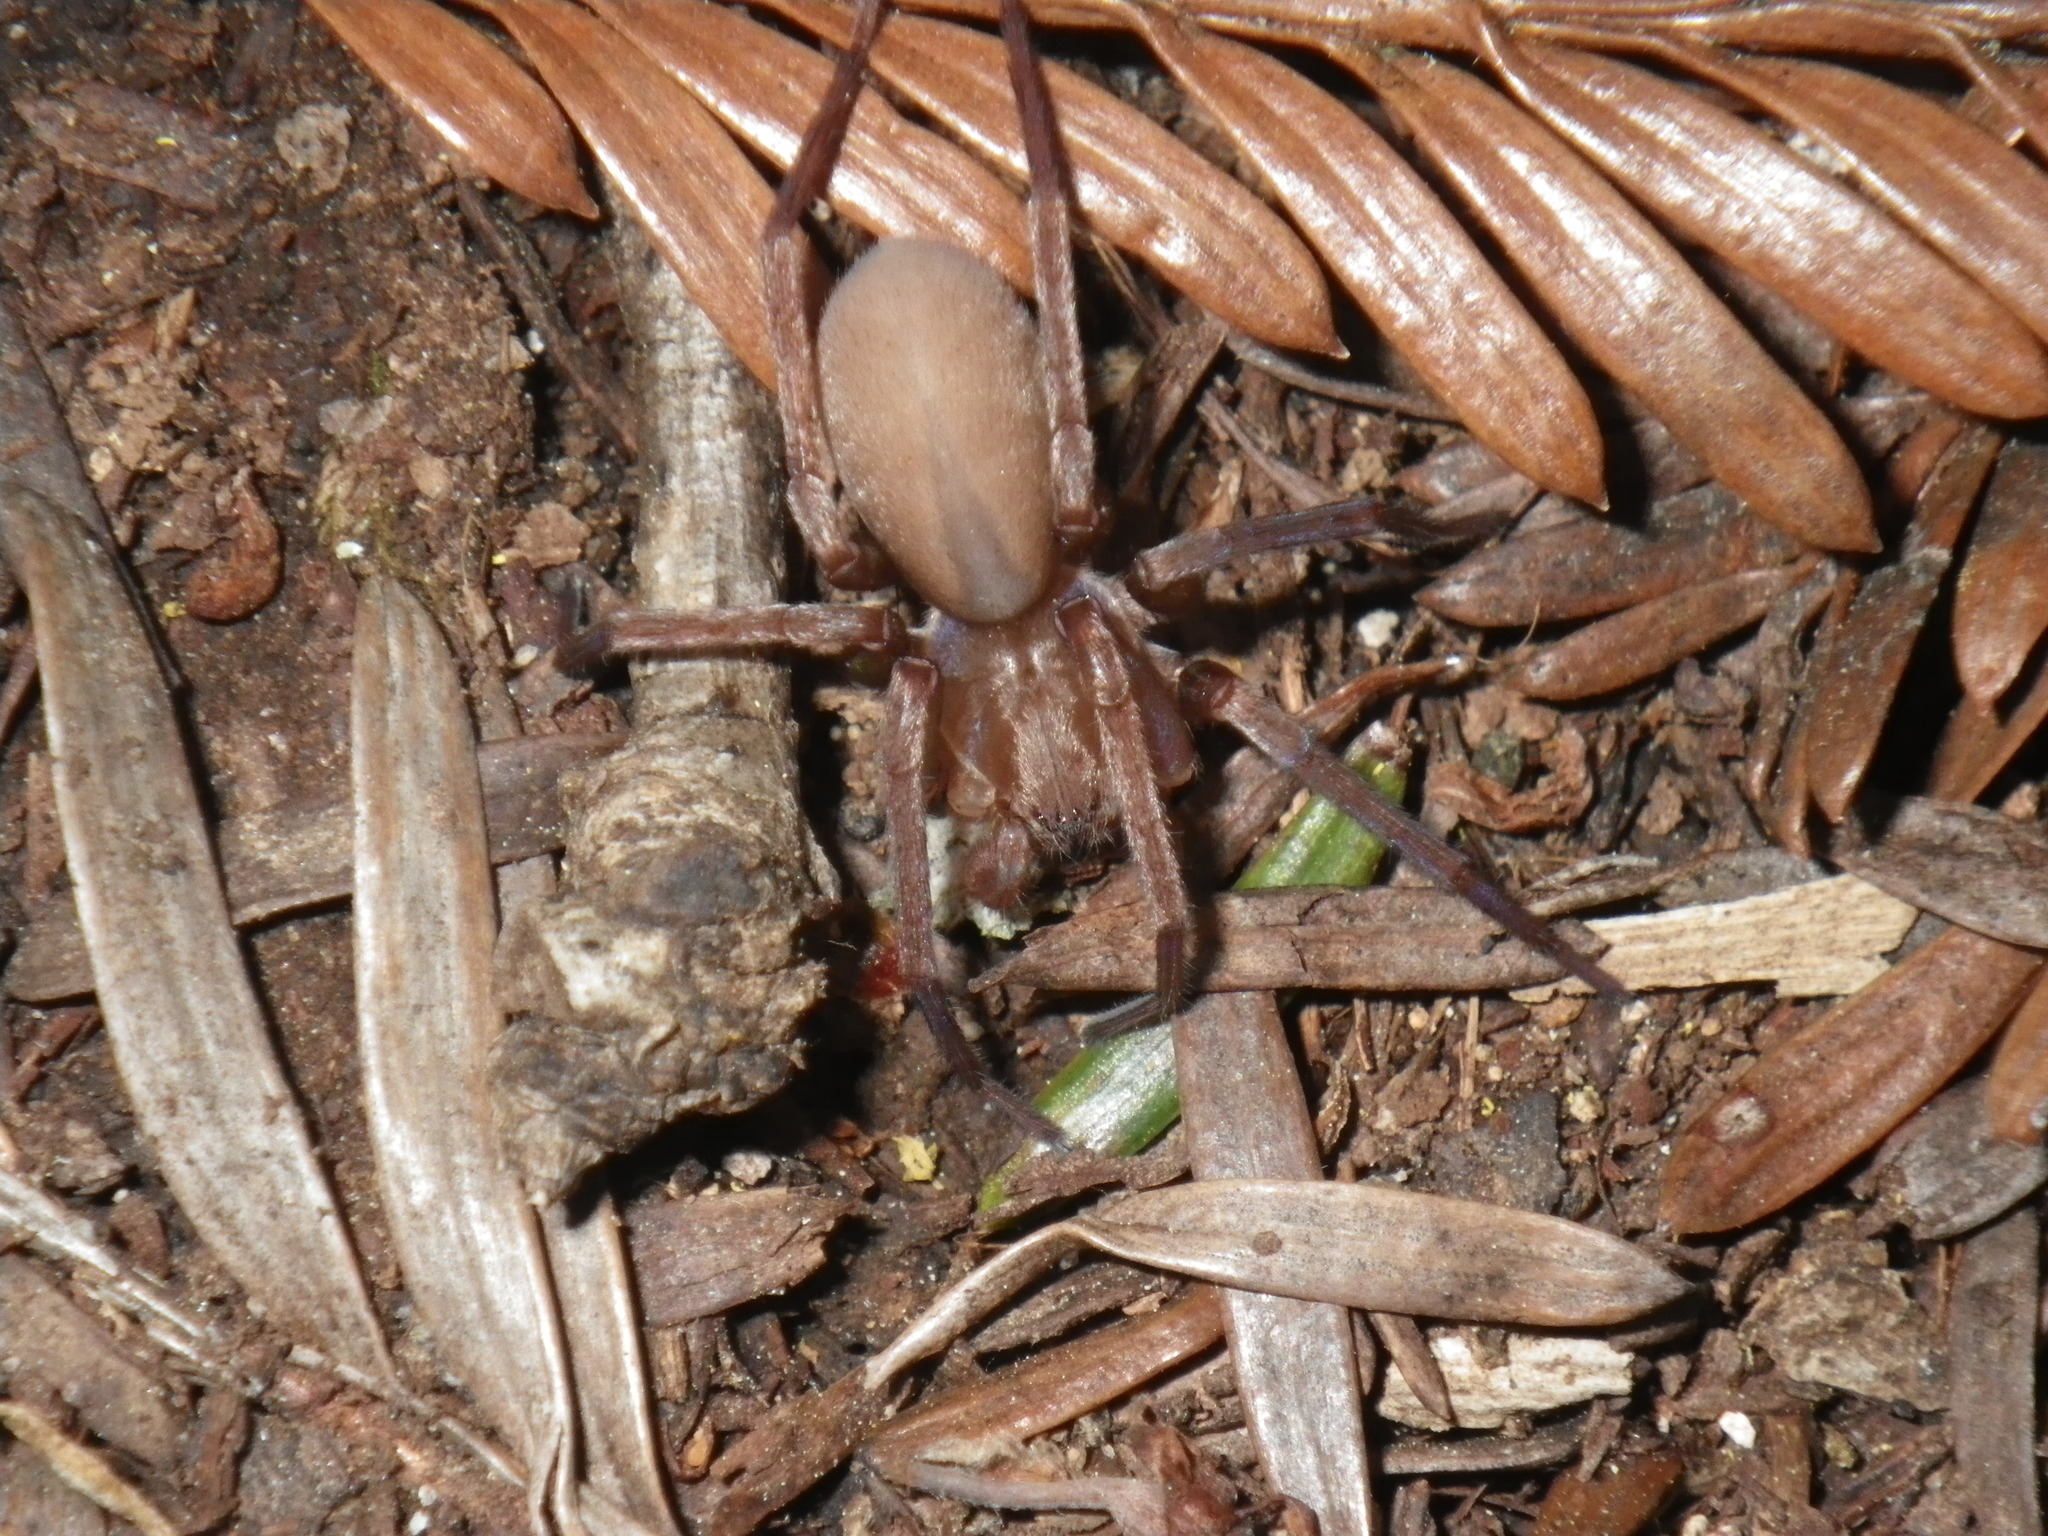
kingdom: Animalia
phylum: Arthropoda
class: Arachnida
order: Araneae
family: Zoropsidae
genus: Titiotus
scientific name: Titiotus
